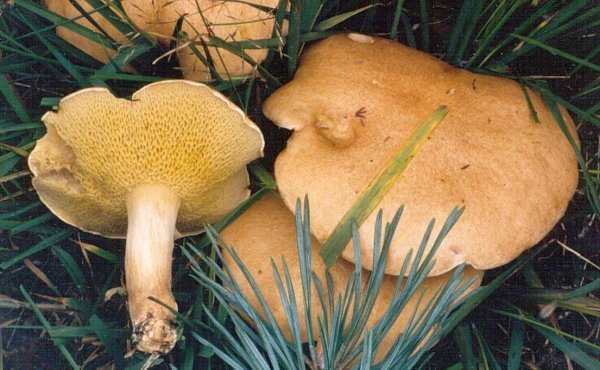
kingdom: Fungi
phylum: Basidiomycota
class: Agaricomycetes
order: Boletales
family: Suillaceae
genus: Suillus
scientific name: Suillus bovinus
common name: Bovine bolete
